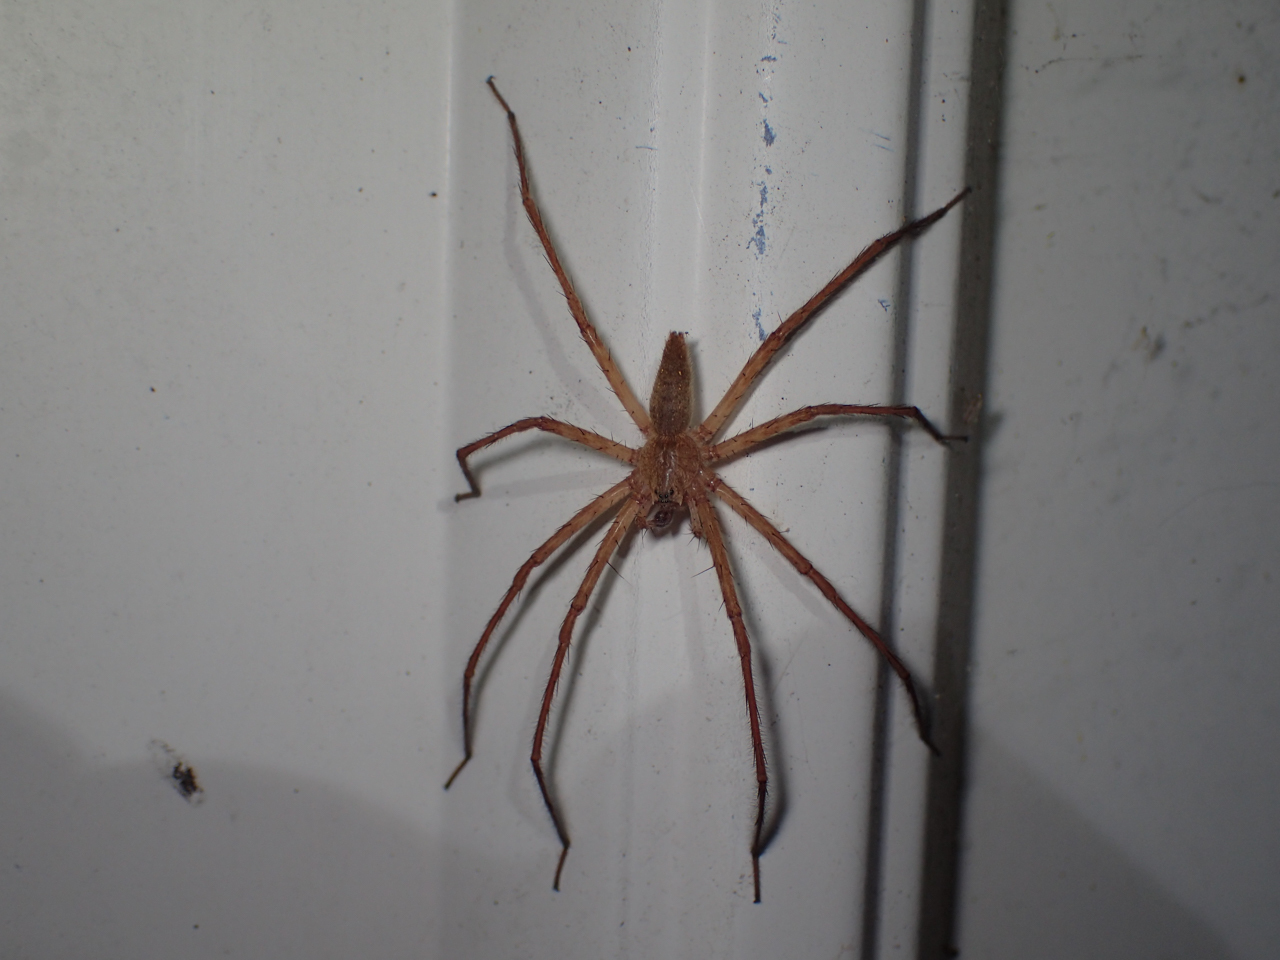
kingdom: Animalia
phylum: Arthropoda
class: Arachnida
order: Araneae
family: Pisauridae
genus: Pisaurina
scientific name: Pisaurina mira
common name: American nursery web spider
